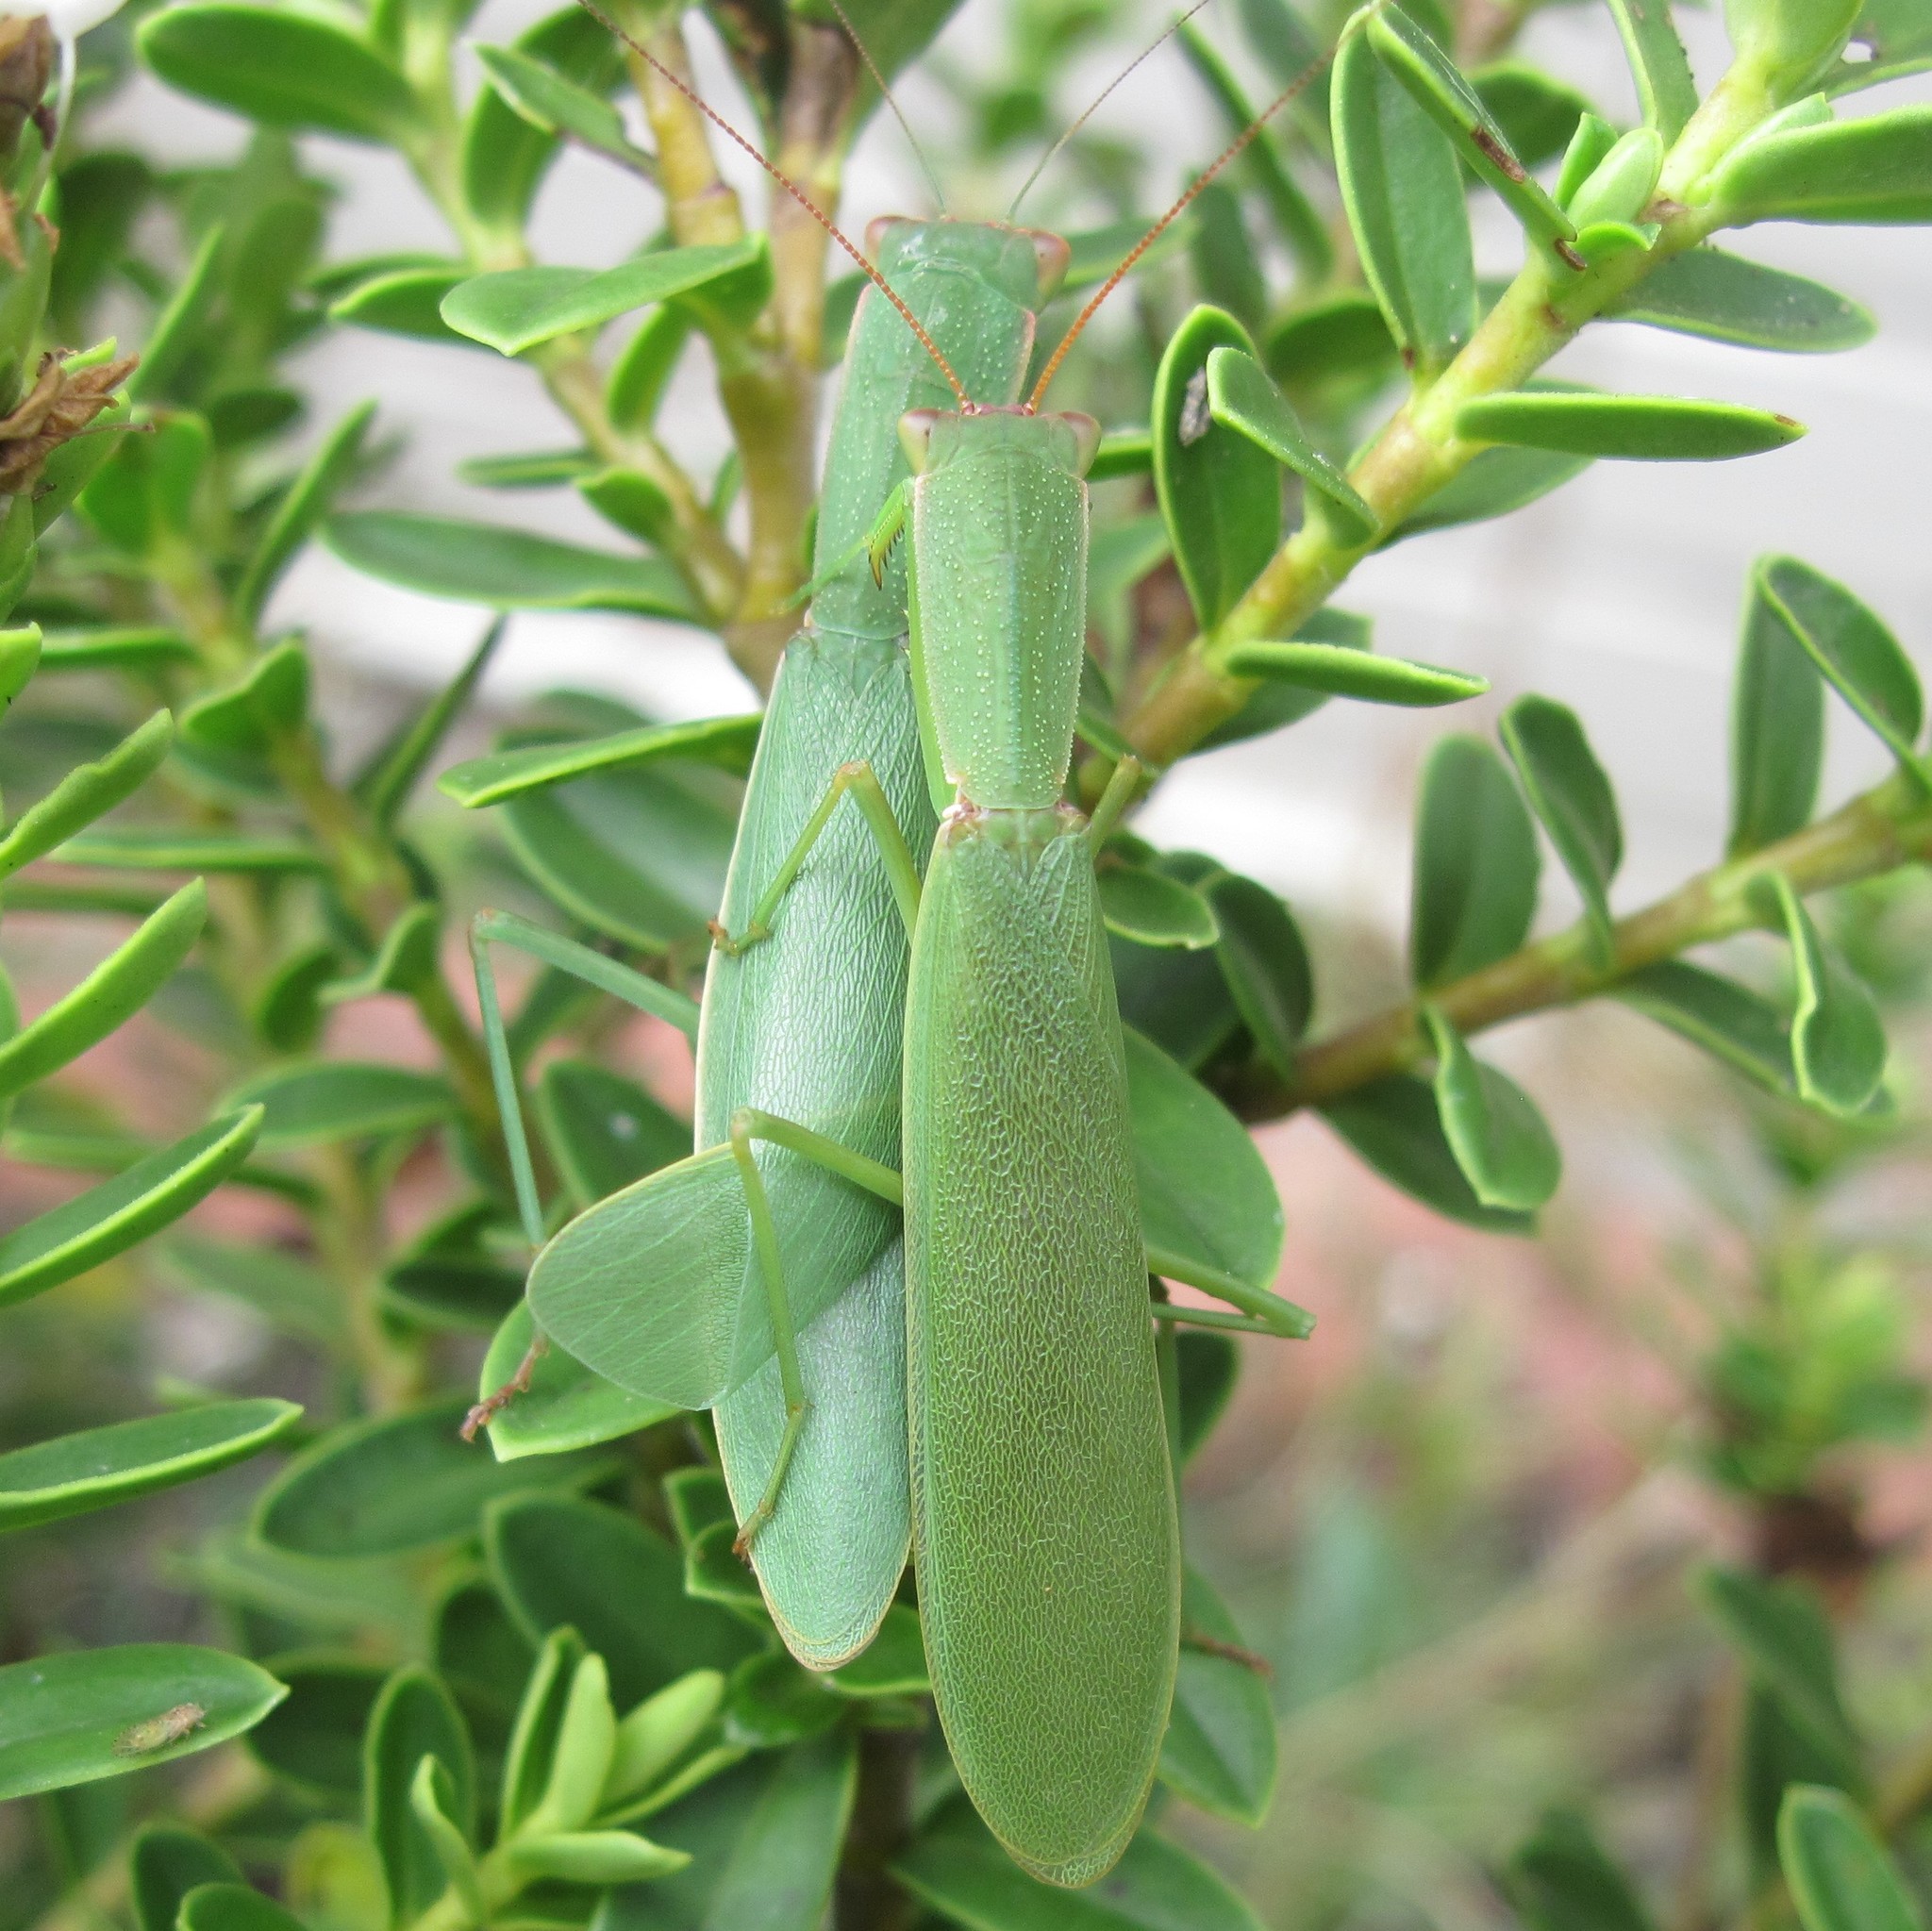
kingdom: Animalia
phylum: Arthropoda
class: Insecta
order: Mantodea
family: Mantidae
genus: Orthodera
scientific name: Orthodera novaezealandiae
